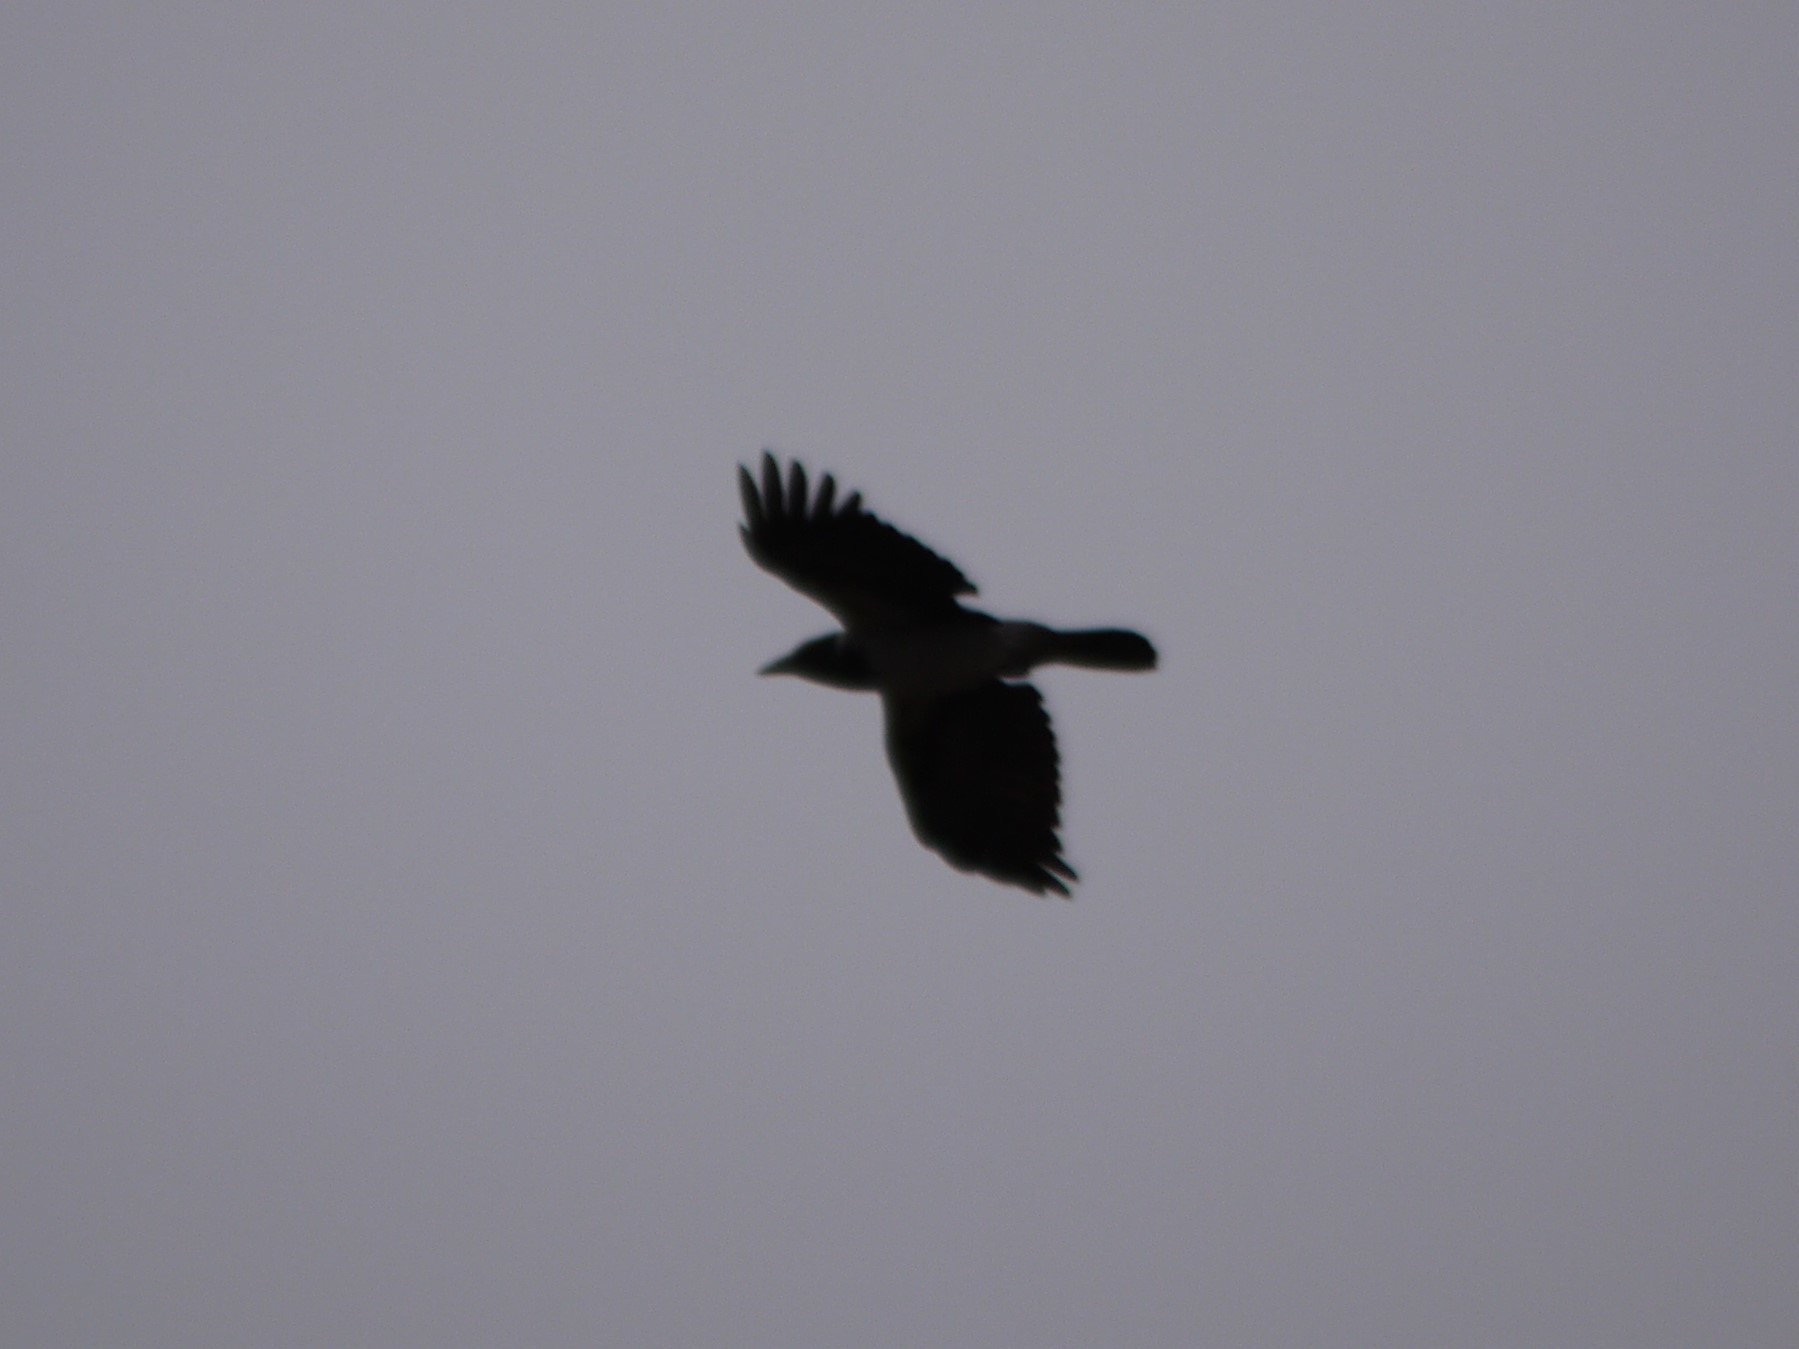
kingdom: Animalia
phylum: Chordata
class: Aves
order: Passeriformes
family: Corvidae
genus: Corvus
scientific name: Corvus cornix
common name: Hooded crow
